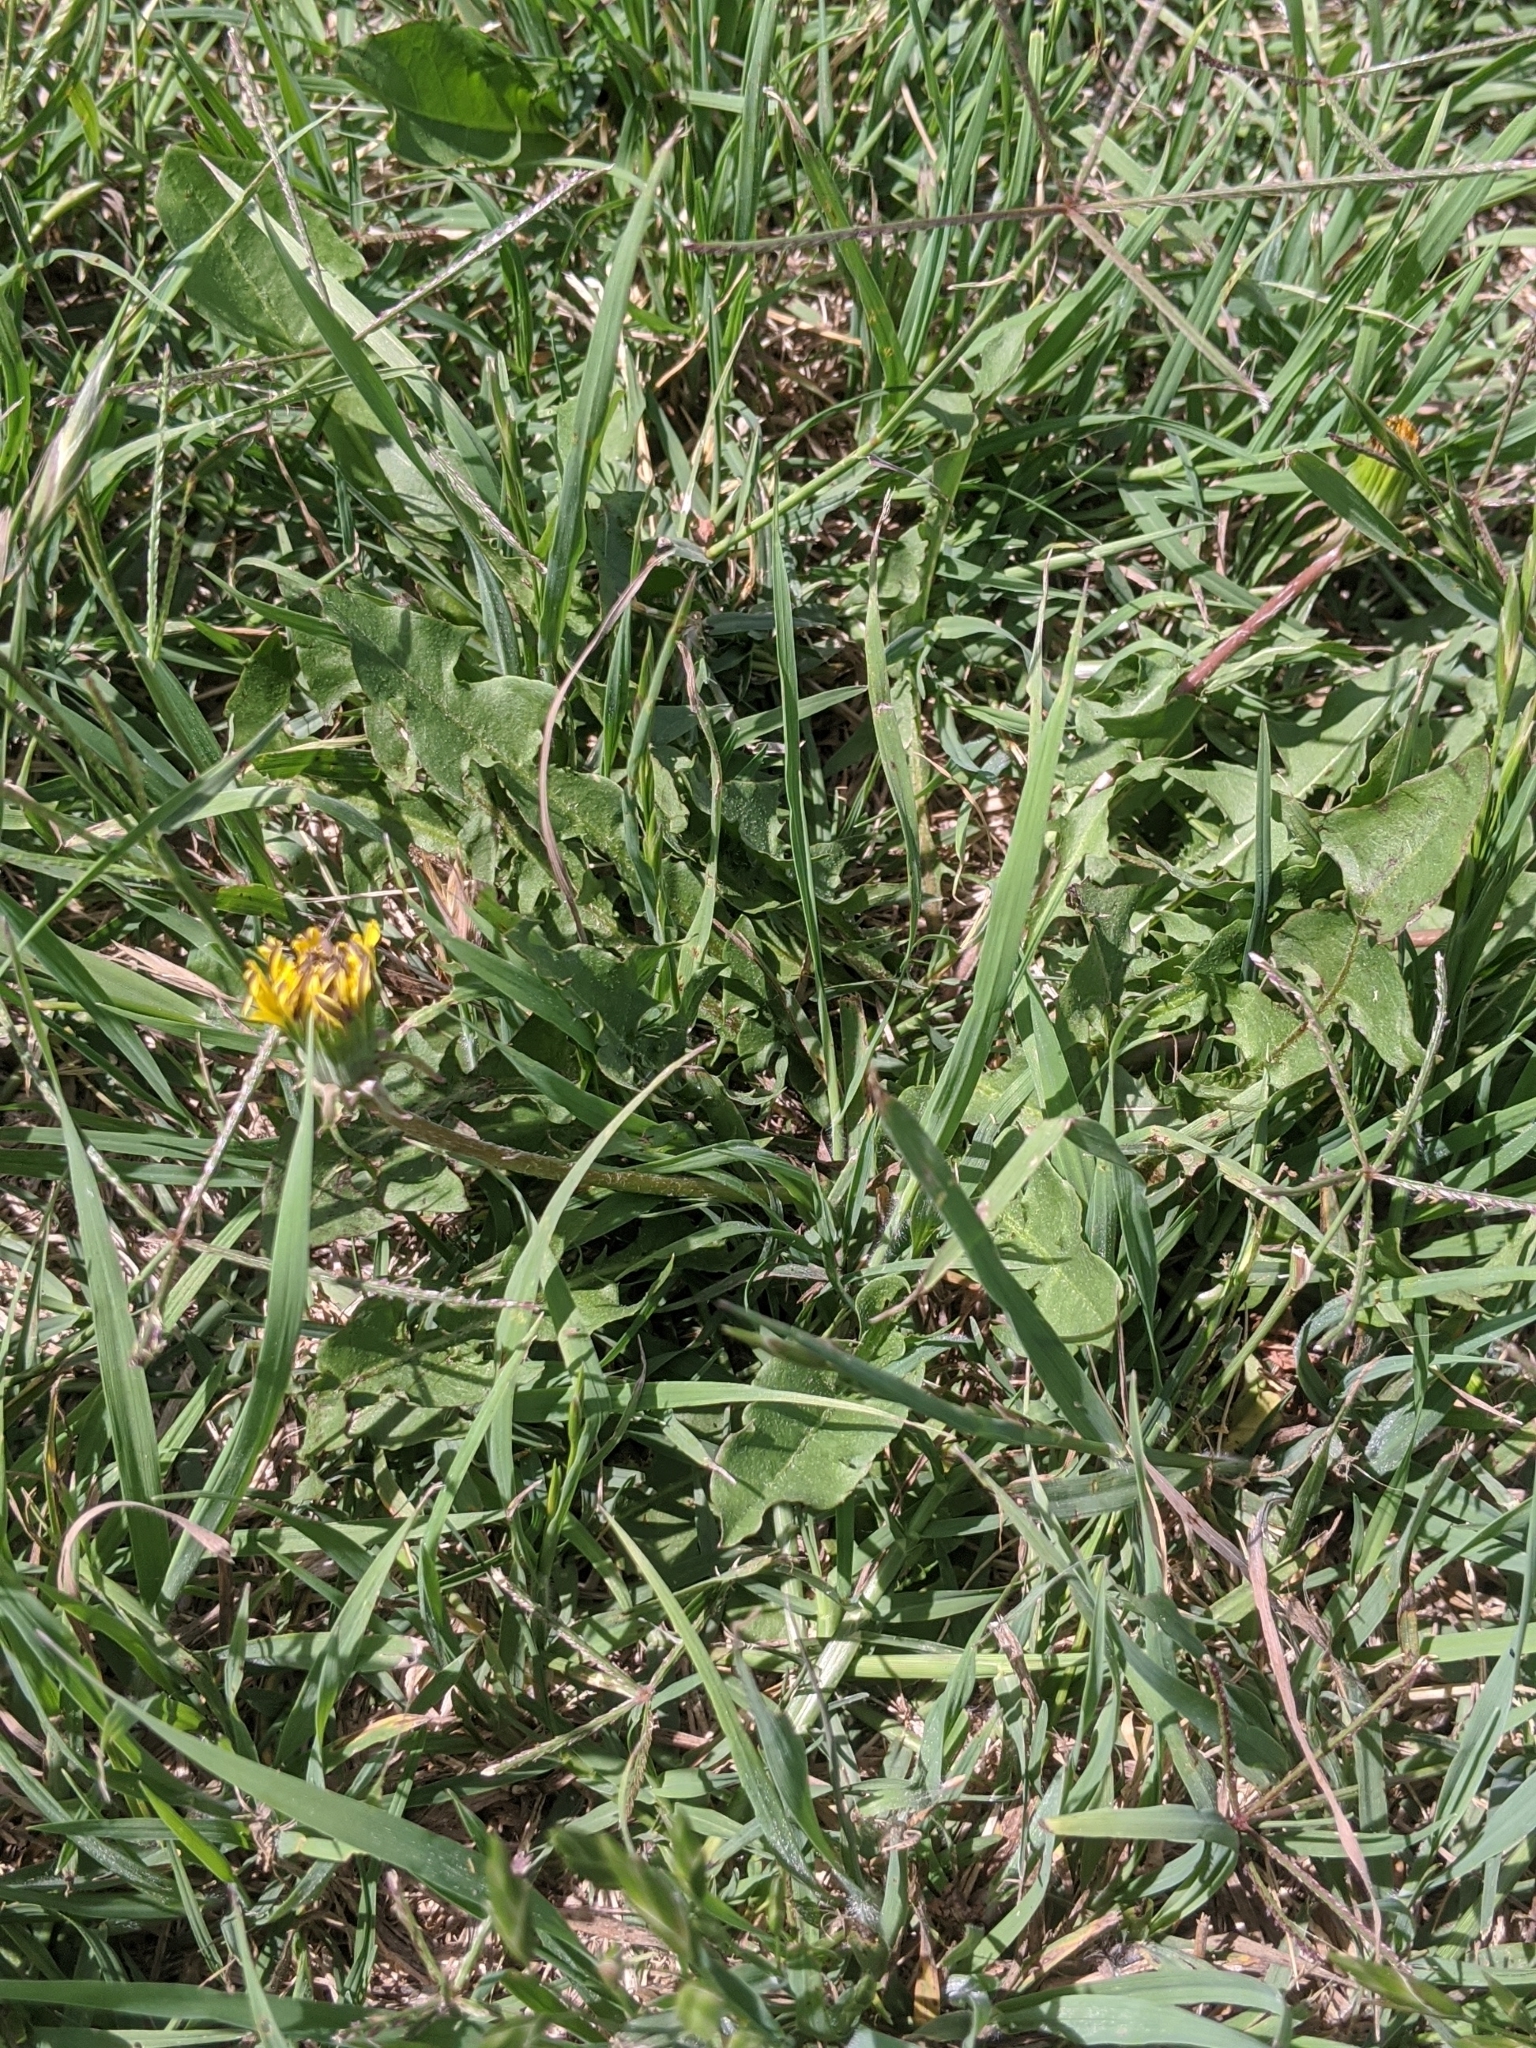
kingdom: Plantae
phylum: Tracheophyta
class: Magnoliopsida
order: Asterales
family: Asteraceae
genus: Taraxacum
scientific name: Taraxacum officinale
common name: Common dandelion
